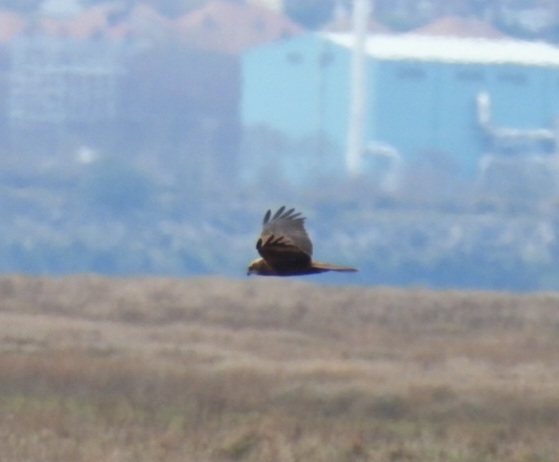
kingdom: Animalia
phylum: Chordata
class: Aves
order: Accipitriformes
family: Accipitridae
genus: Circus
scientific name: Circus aeruginosus
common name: Western marsh harrier
